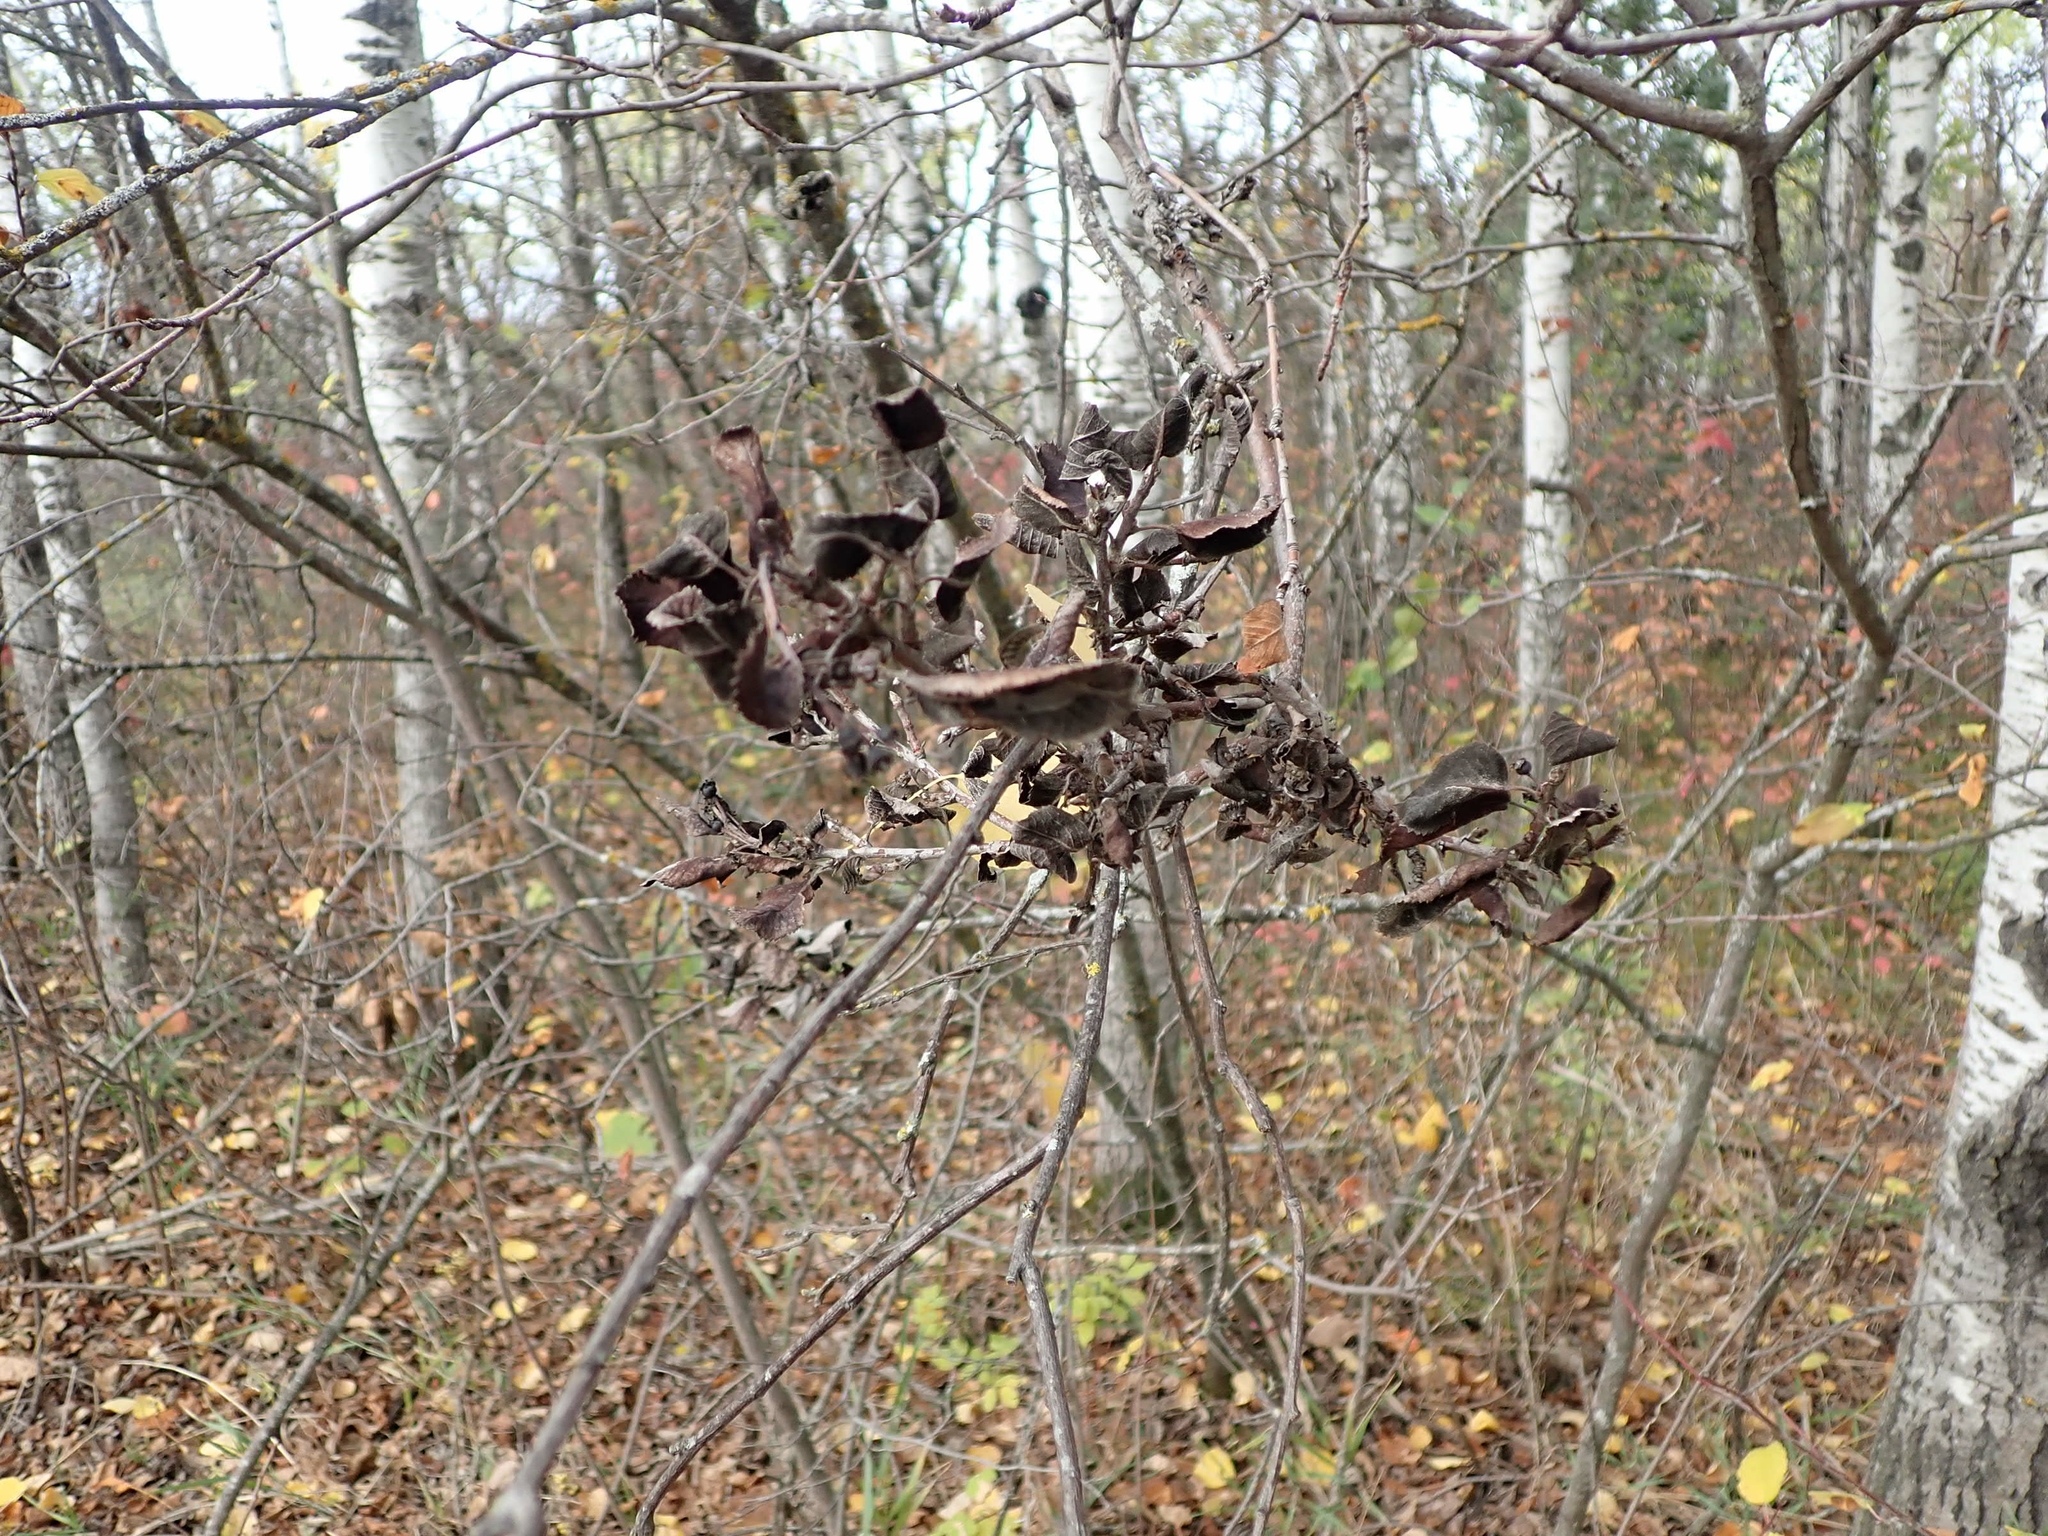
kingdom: Fungi
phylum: Ascomycota
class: Dothideomycetes
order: Venturiales
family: Venturiaceae
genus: Apiosporina
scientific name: Apiosporina collinsii
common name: Black leaf
